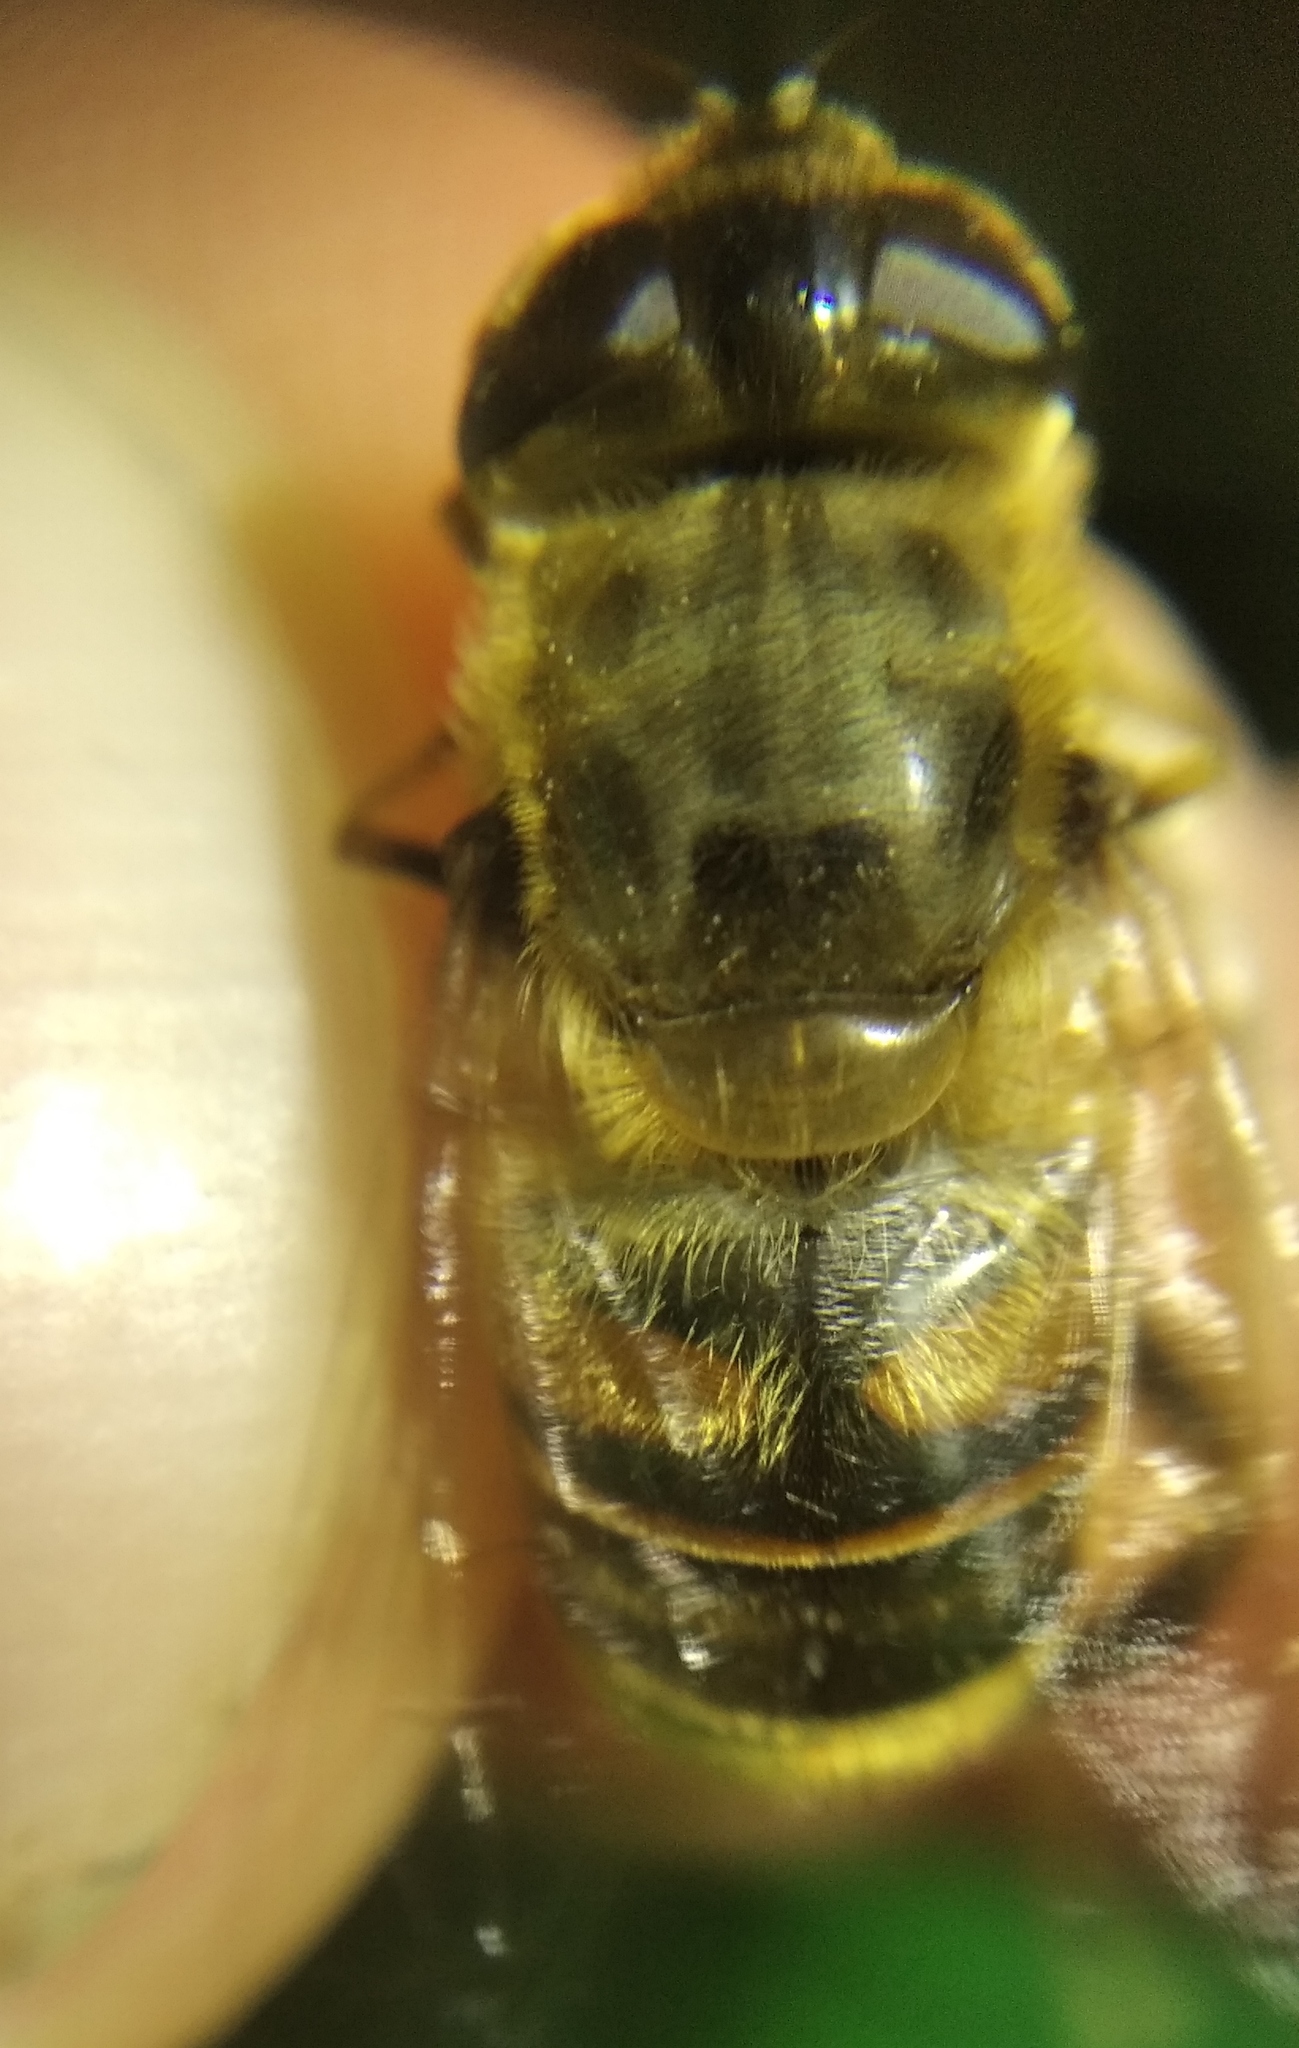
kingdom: Animalia
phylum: Arthropoda
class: Insecta
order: Diptera
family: Syrphidae
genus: Eristalis
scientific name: Eristalis tenax
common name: Drone fly
